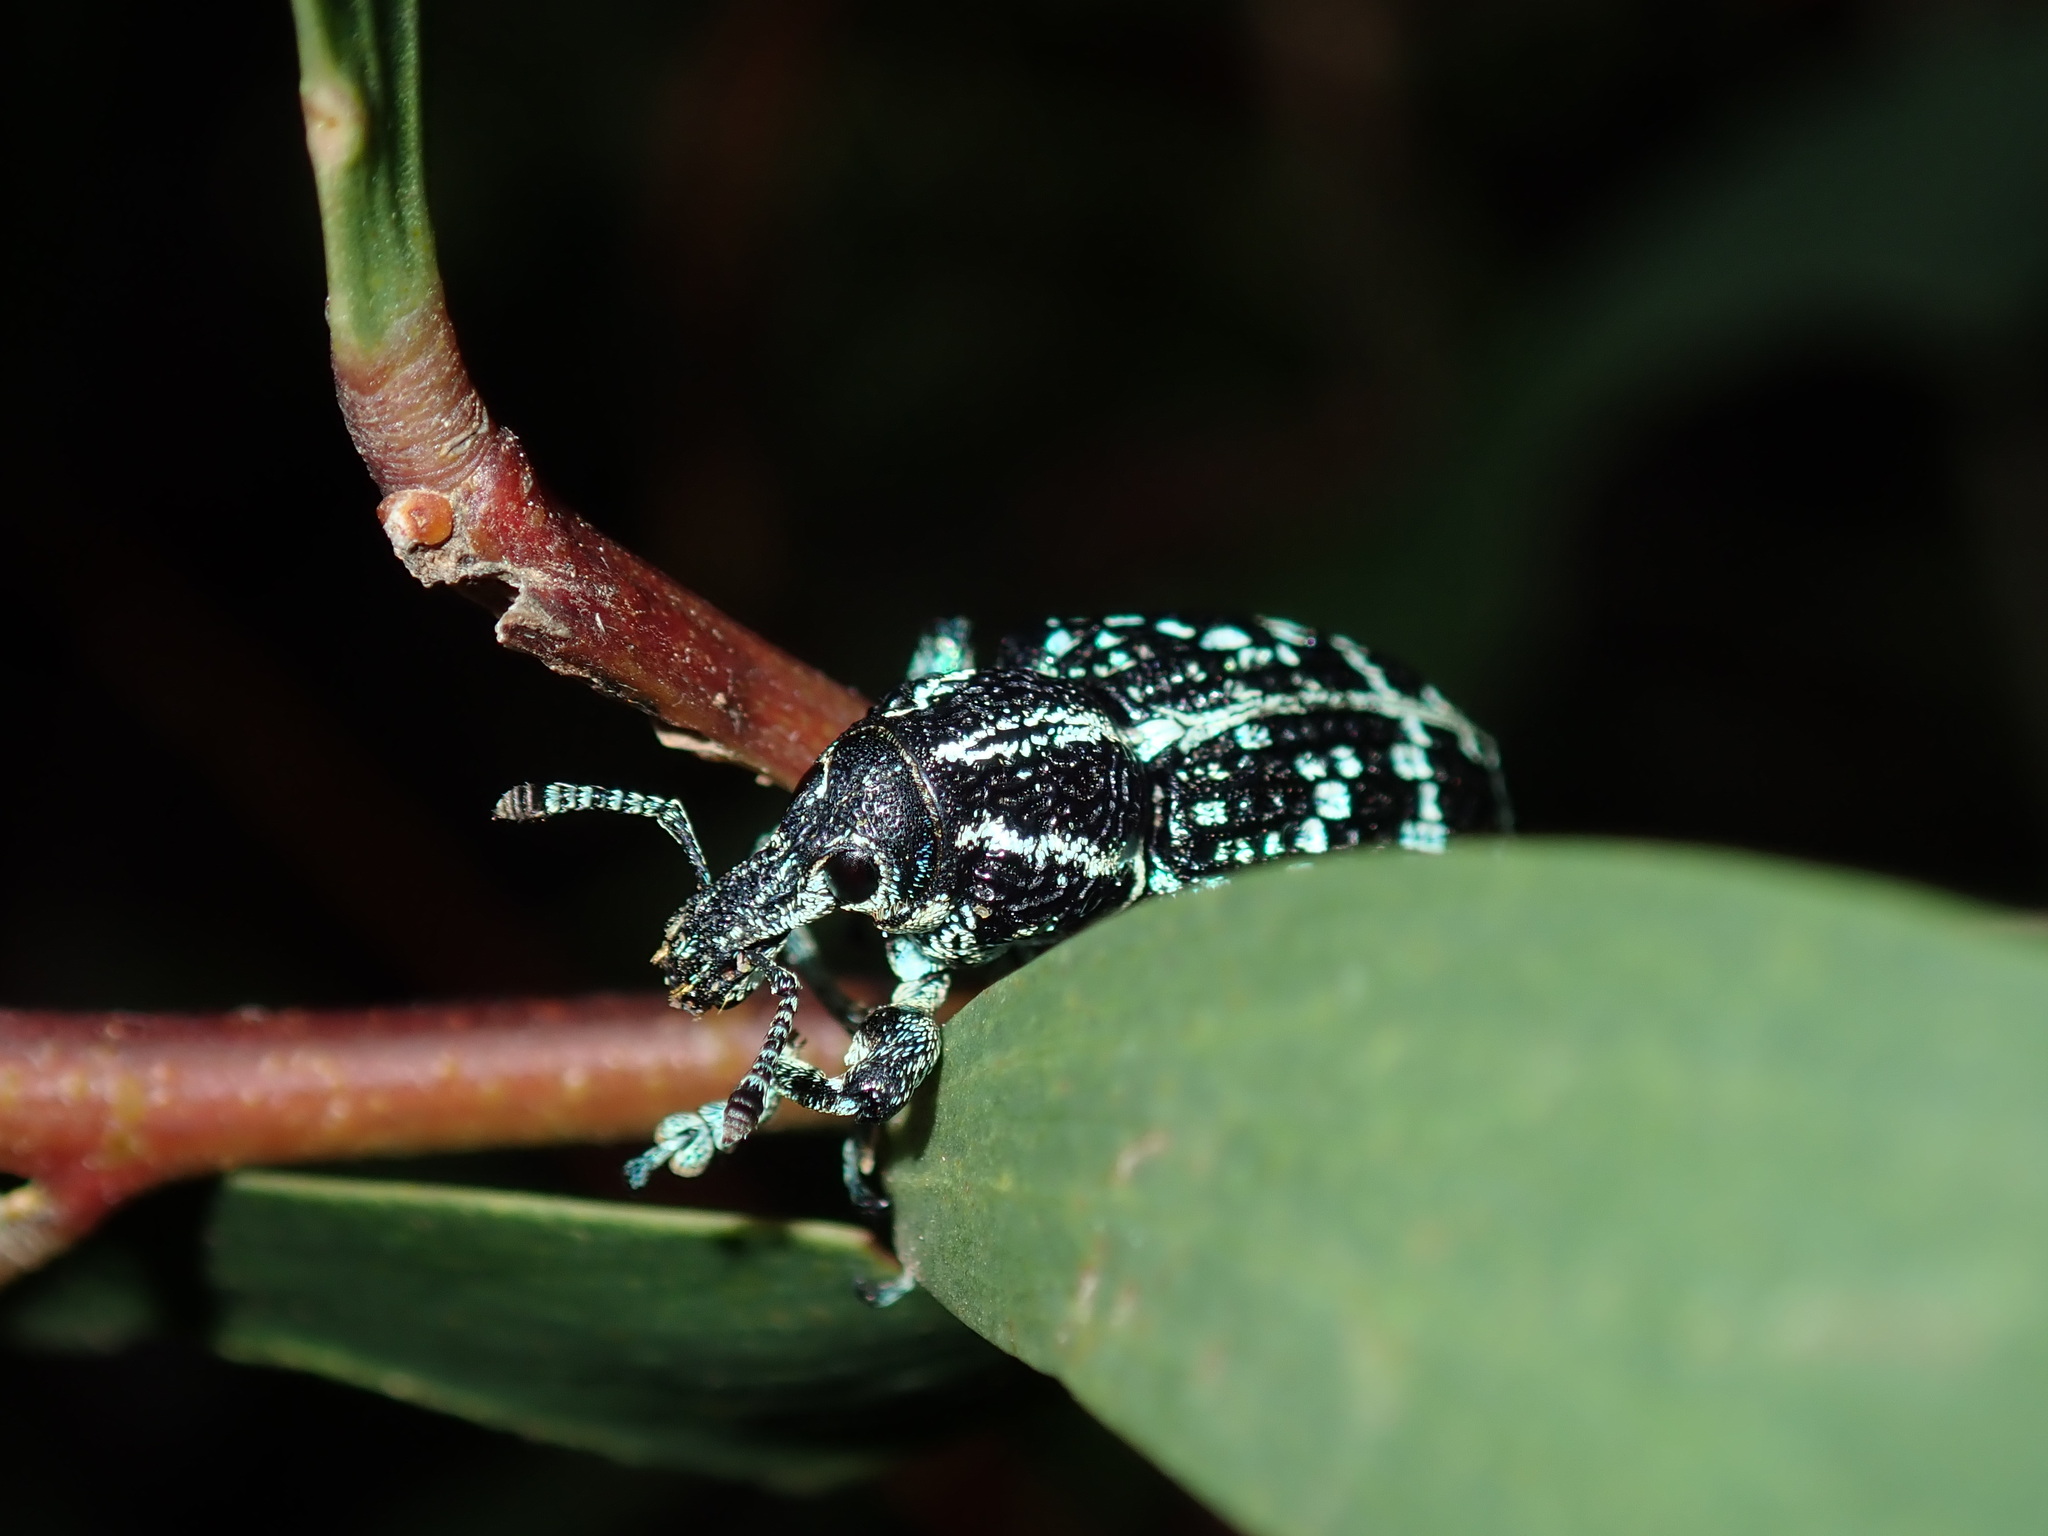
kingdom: Animalia
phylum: Arthropoda
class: Insecta
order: Coleoptera
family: Curculionidae
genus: Chrysolopus
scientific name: Chrysolopus spectabilis
